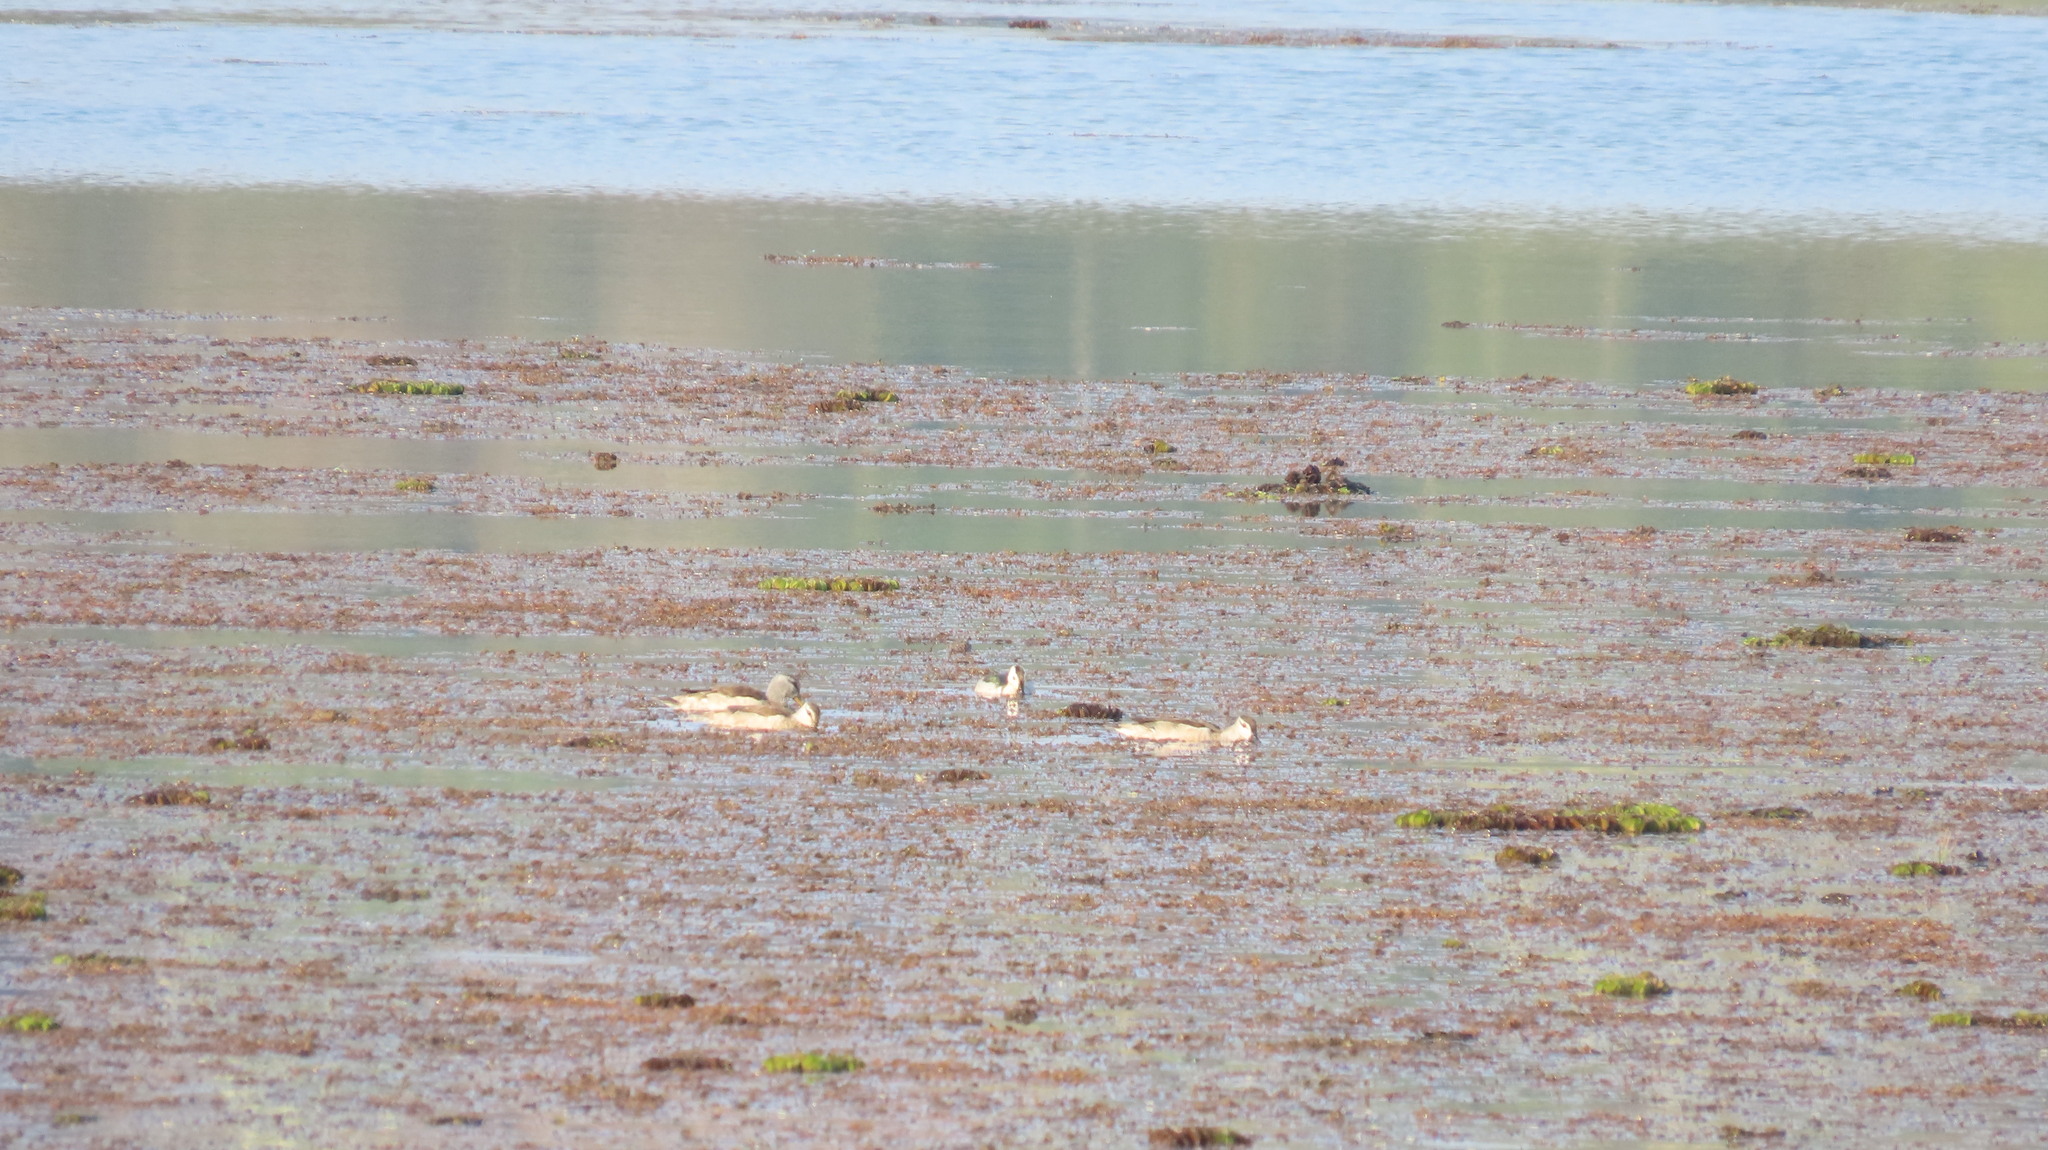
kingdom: Animalia
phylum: Chordata
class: Aves
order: Anseriformes
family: Anatidae
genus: Nettapus
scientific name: Nettapus coromandelianus
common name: Cotton pygmy-goose
